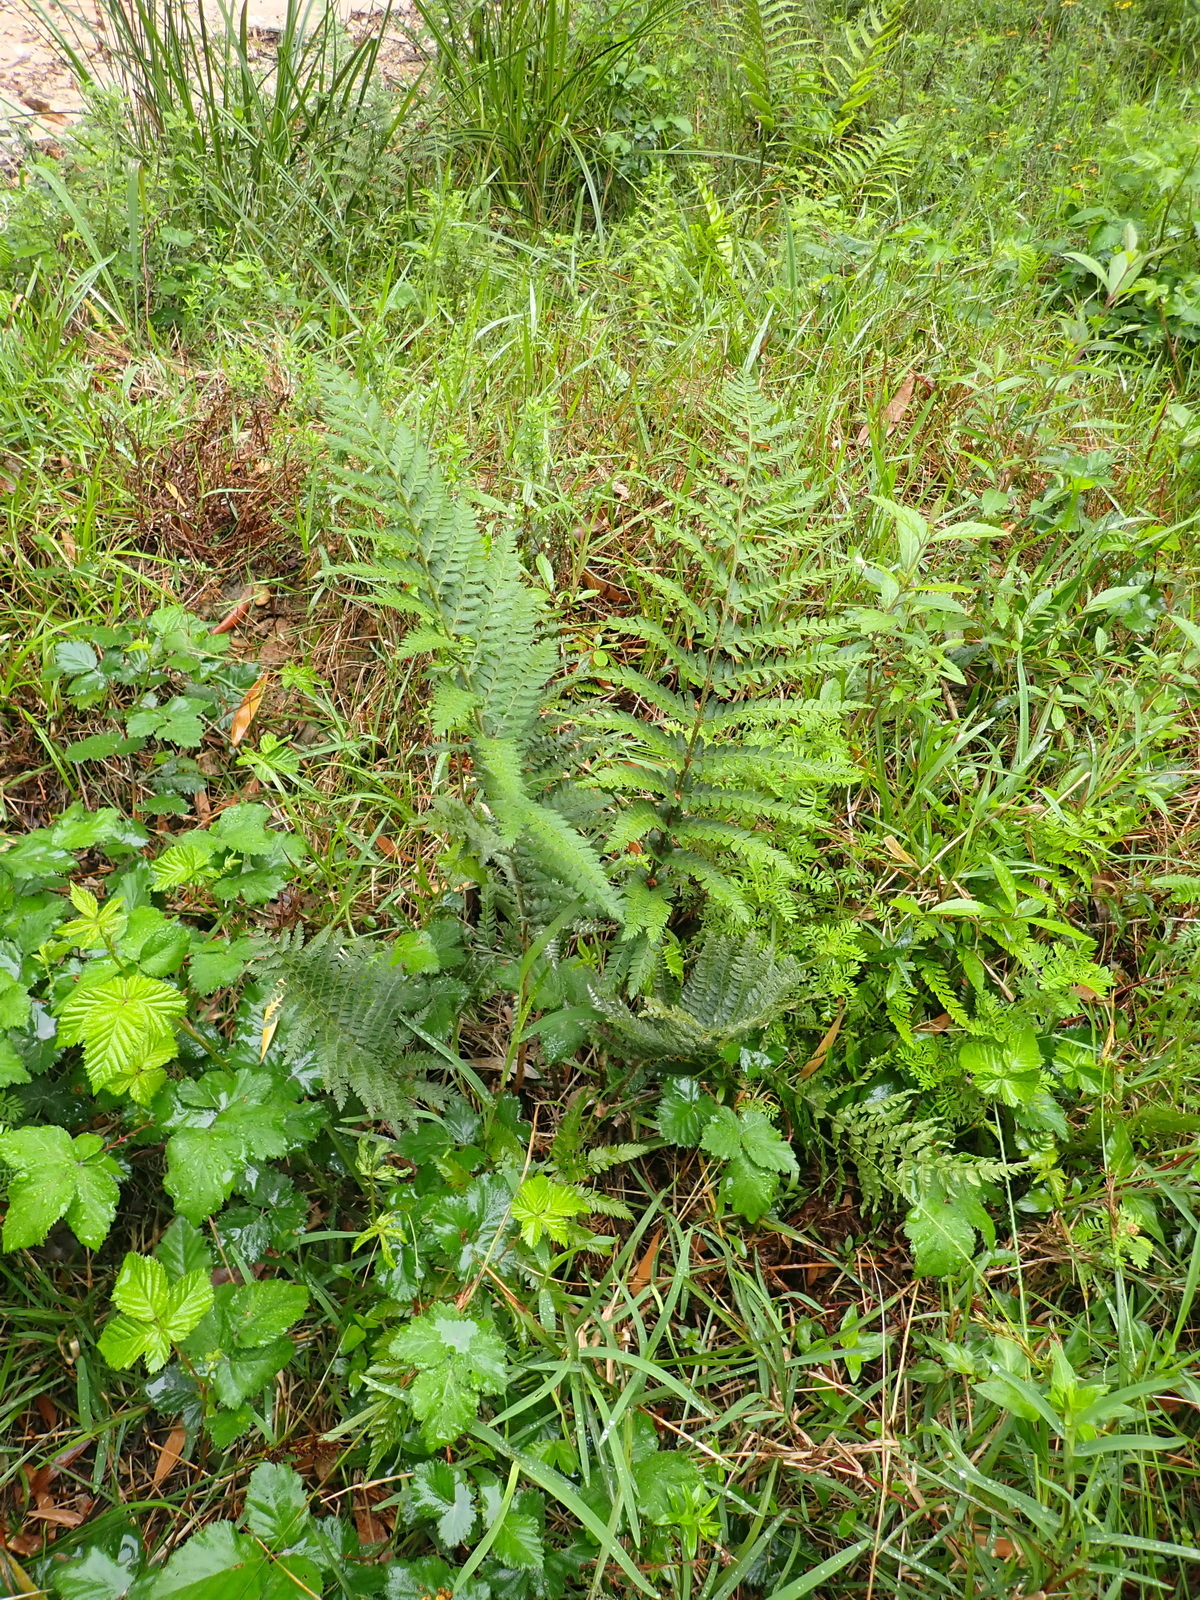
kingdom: Plantae
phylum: Tracheophyta
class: Polypodiopsida
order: Polypodiales
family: Dryopteridaceae
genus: Polystichum
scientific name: Polystichum pungens
